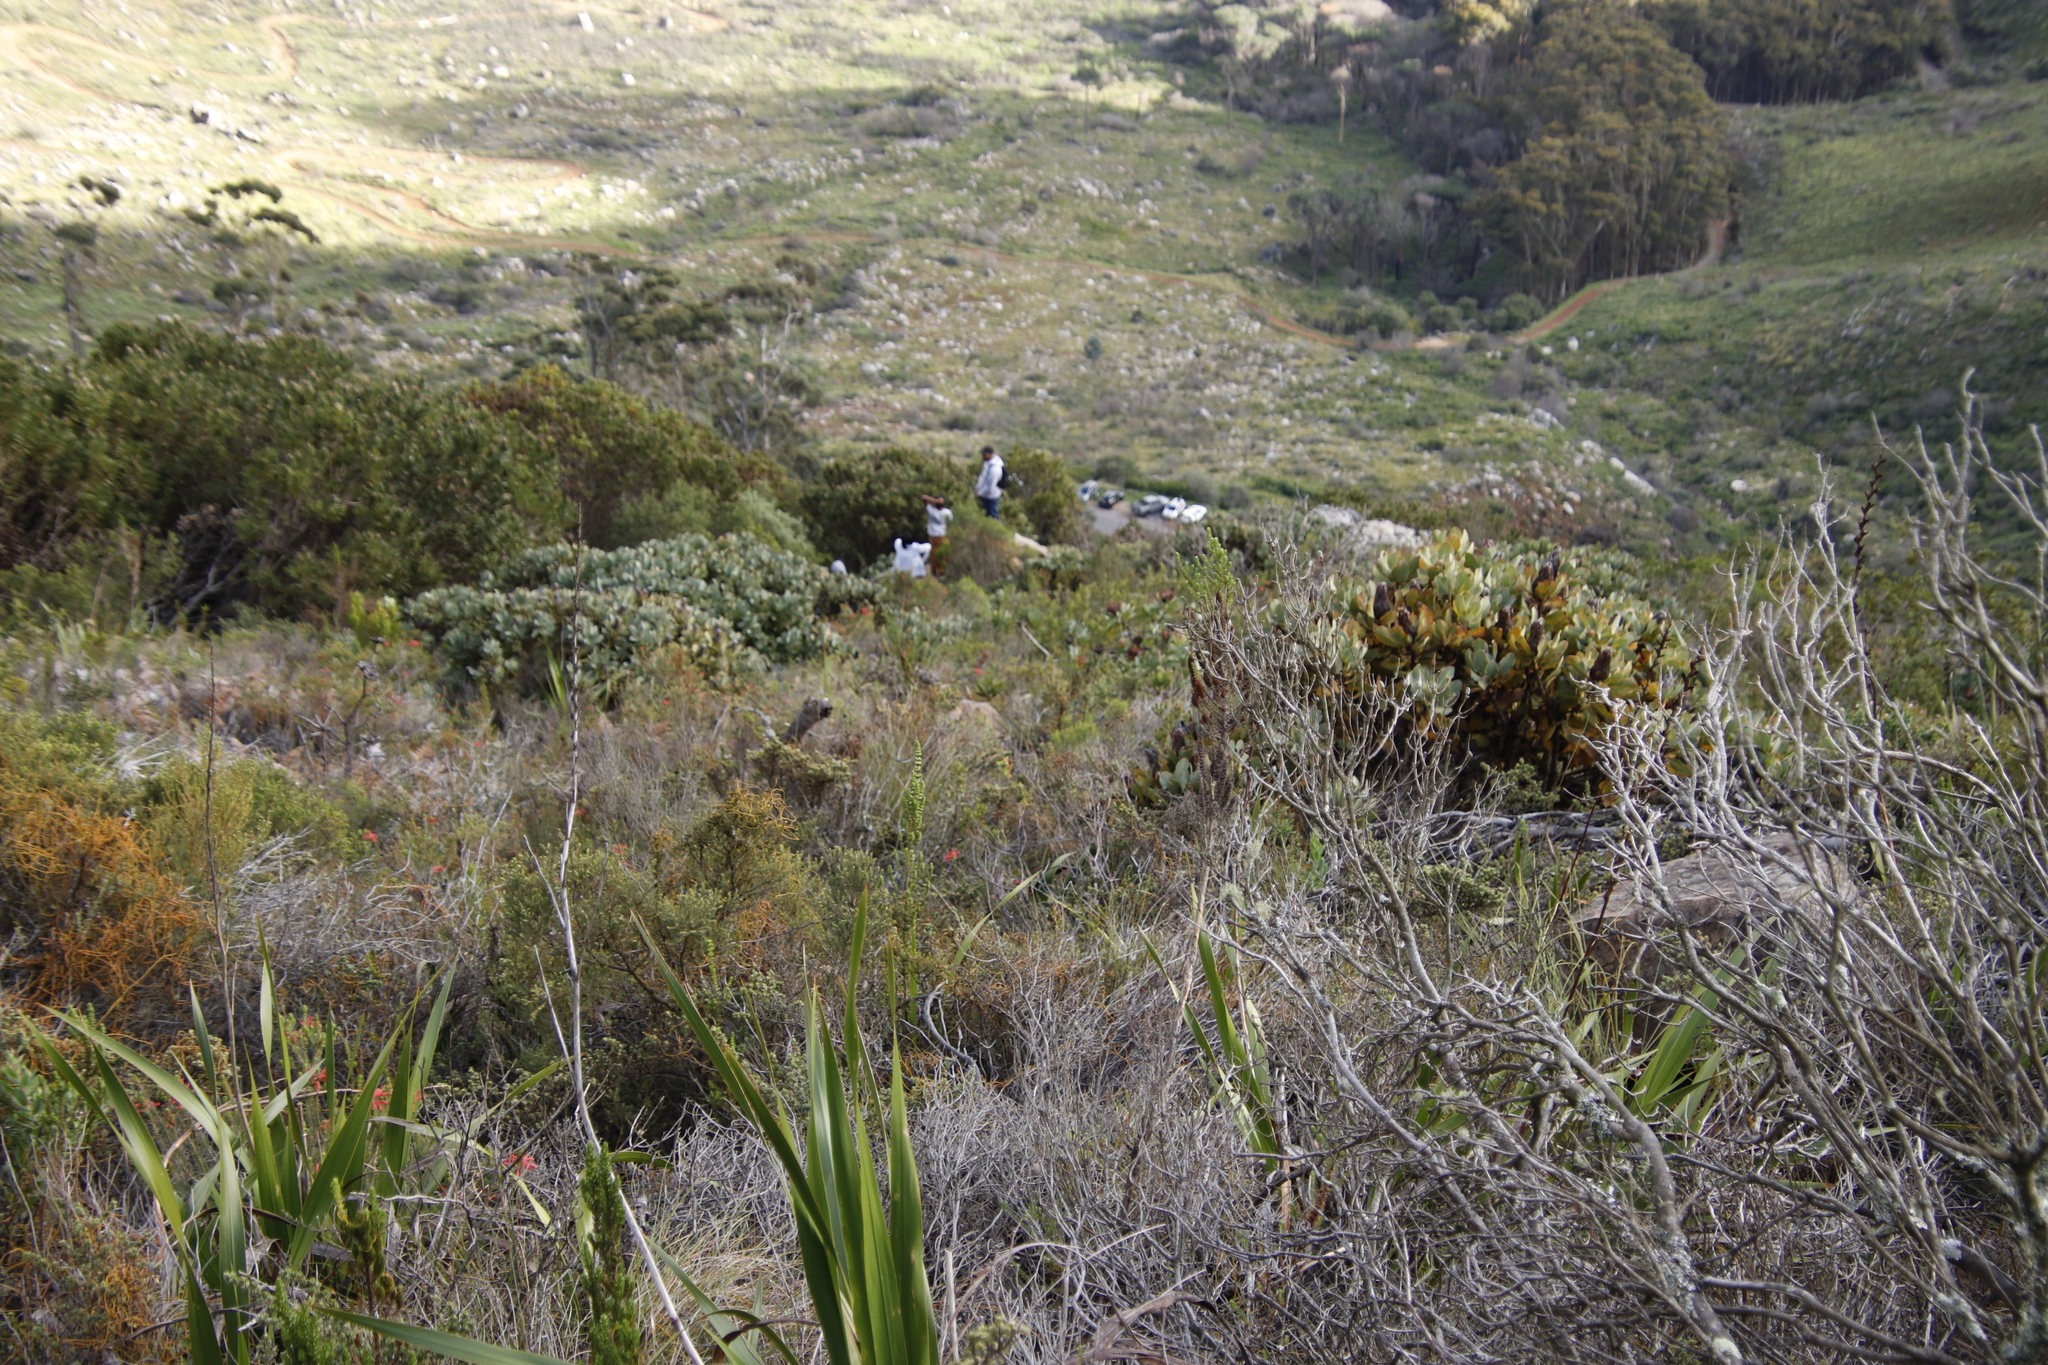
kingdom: Plantae
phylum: Tracheophyta
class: Magnoliopsida
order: Proteales
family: Proteaceae
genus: Protea
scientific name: Protea grandiceps
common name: Red sugarbush
